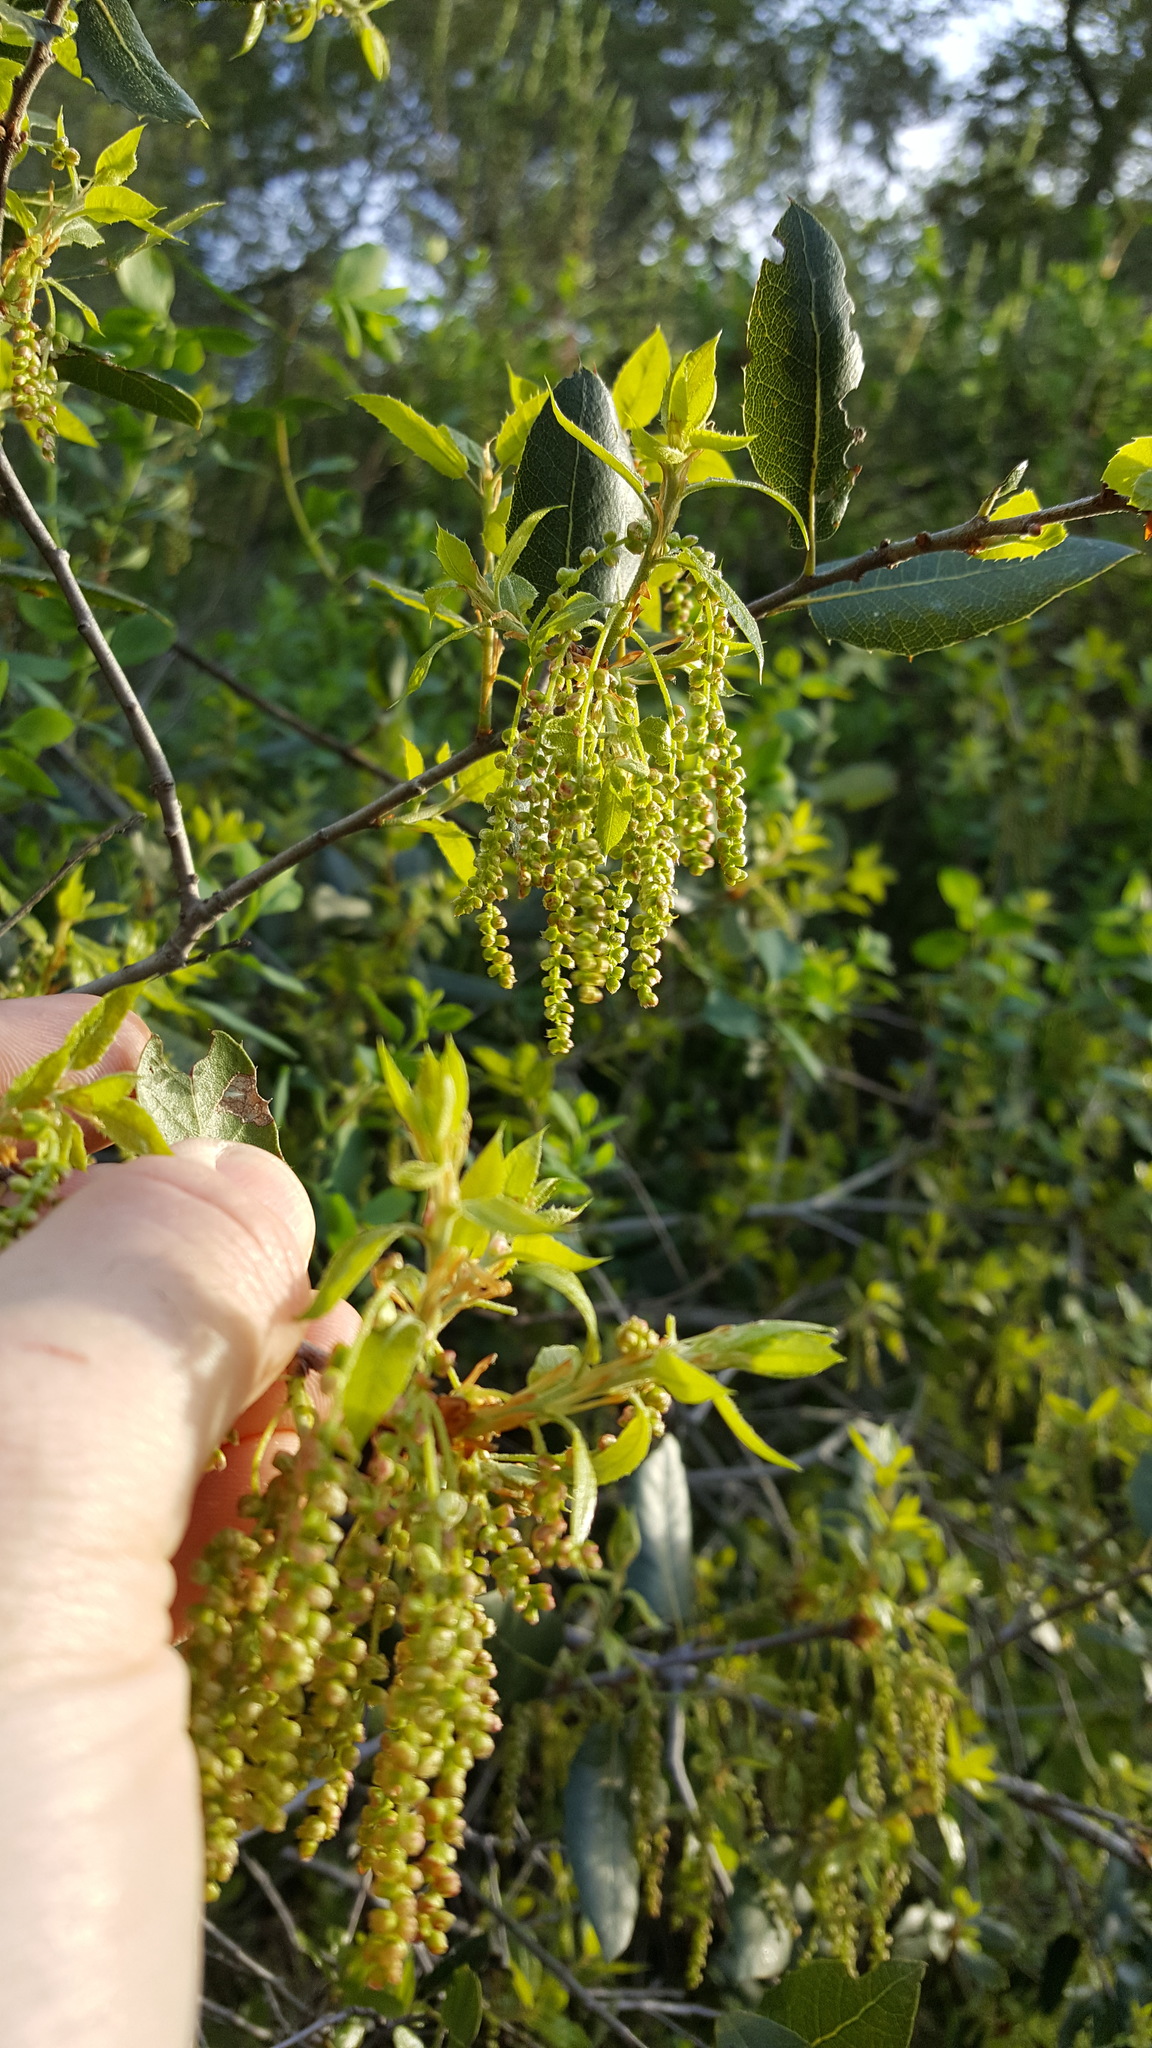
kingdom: Plantae
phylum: Tracheophyta
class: Magnoliopsida
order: Fagales
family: Fagaceae
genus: Quercus
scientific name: Quercus wislizeni
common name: Interior live oak
